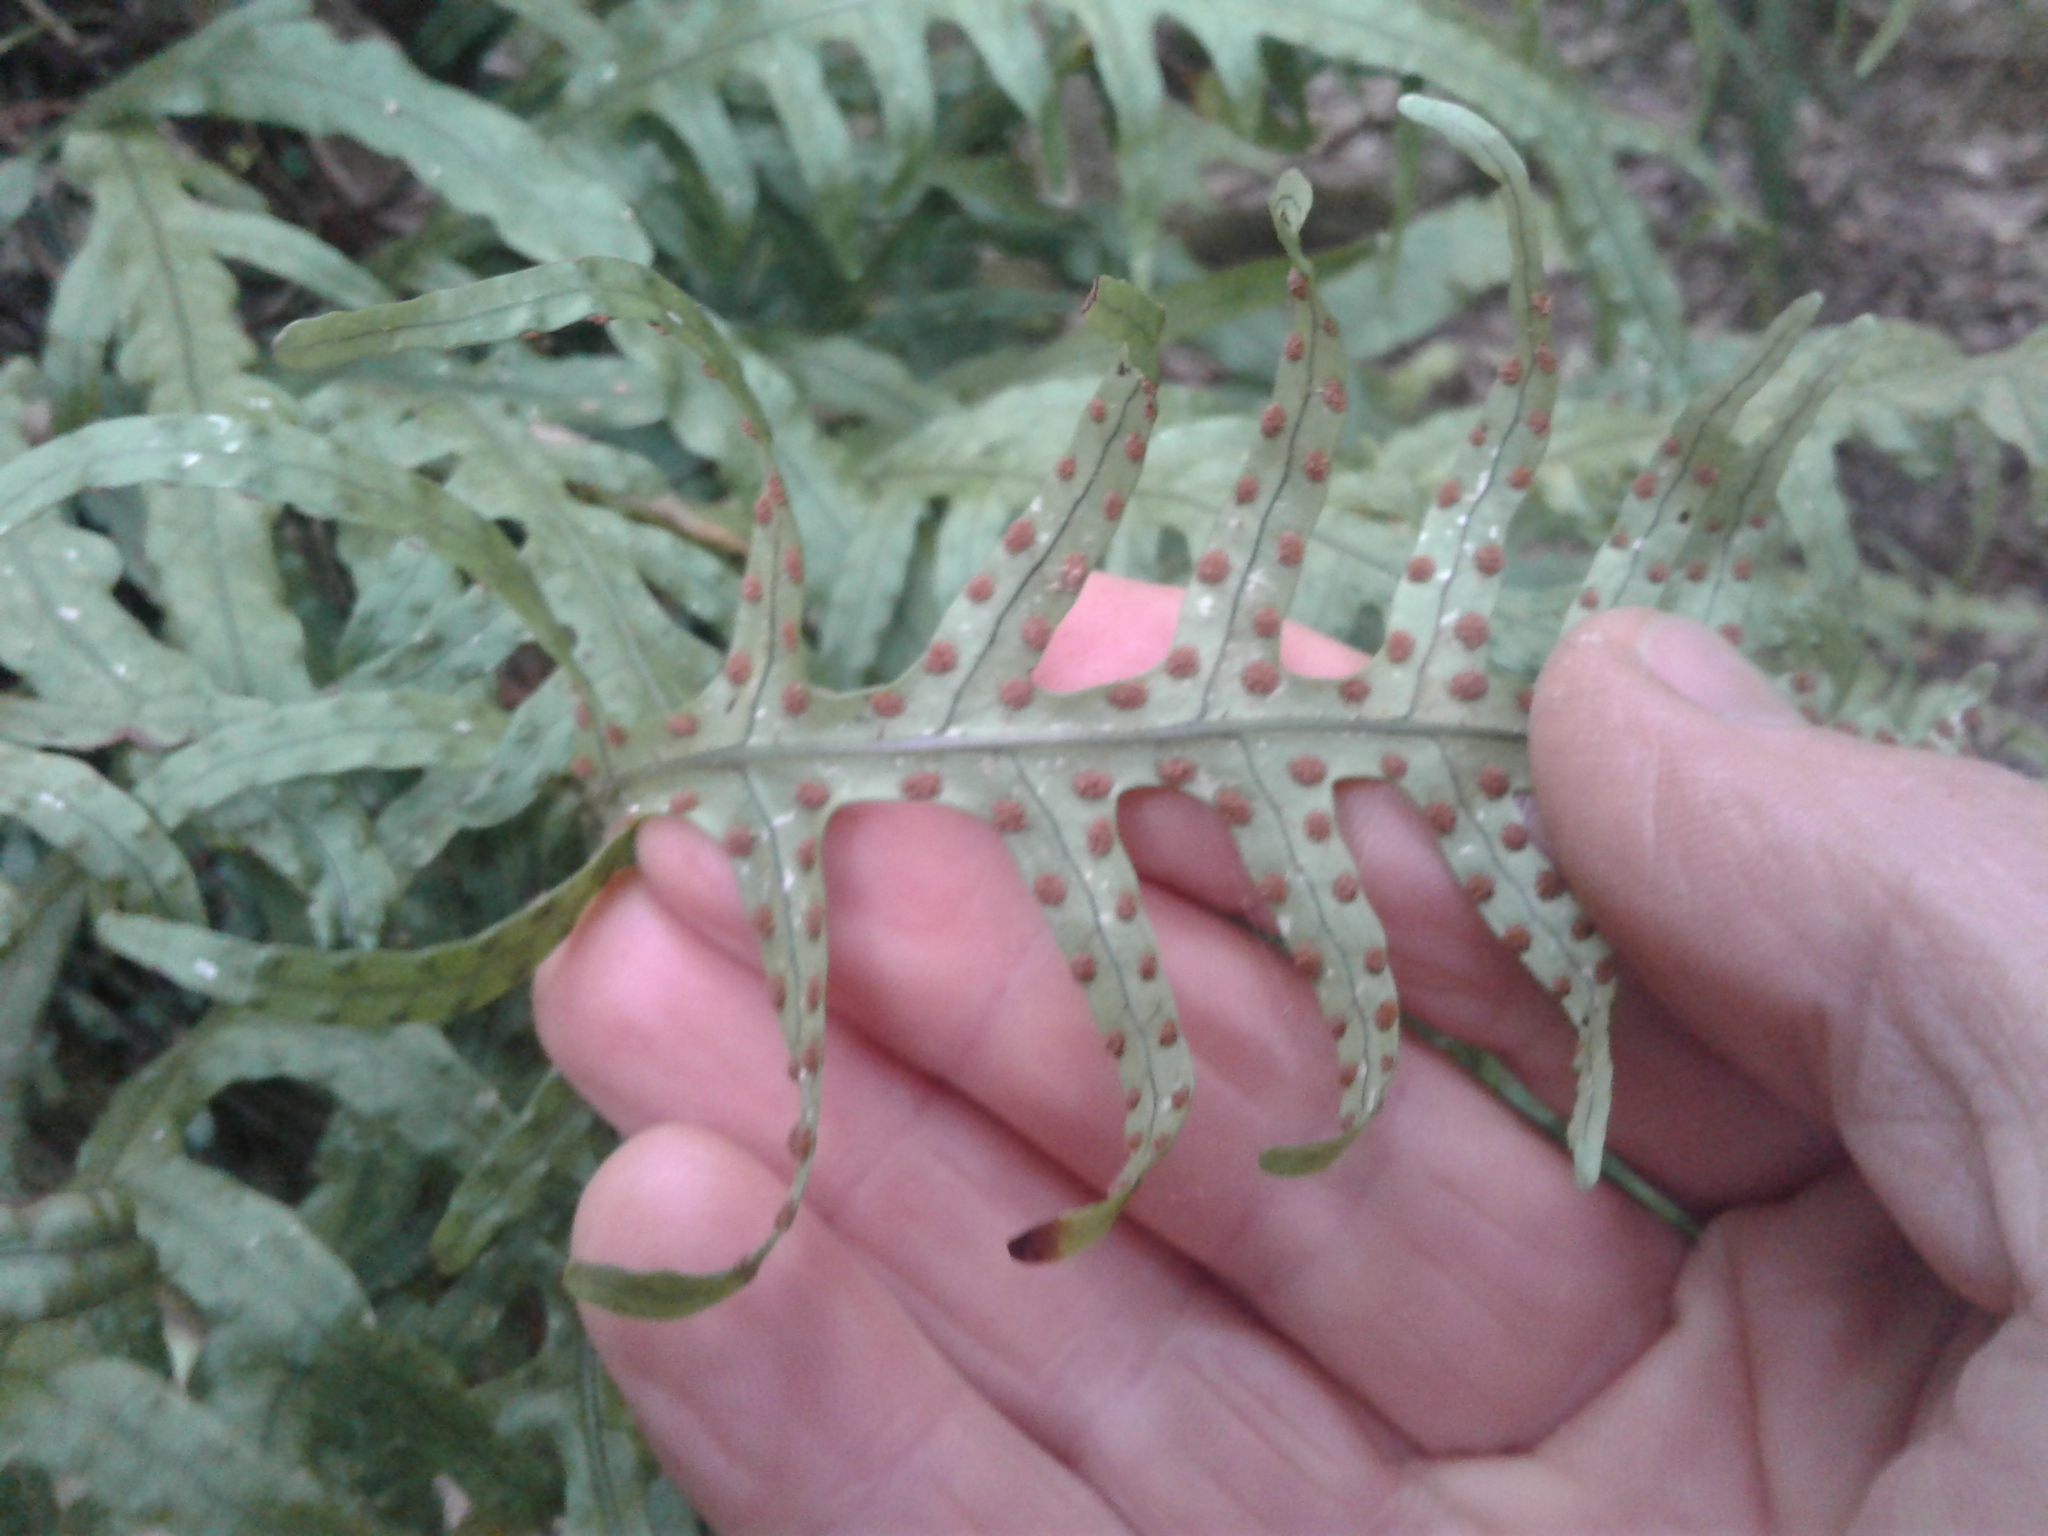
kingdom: Plantae
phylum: Tracheophyta
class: Polypodiopsida
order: Polypodiales
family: Polypodiaceae
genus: Lecanopteris
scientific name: Lecanopteris scandens
